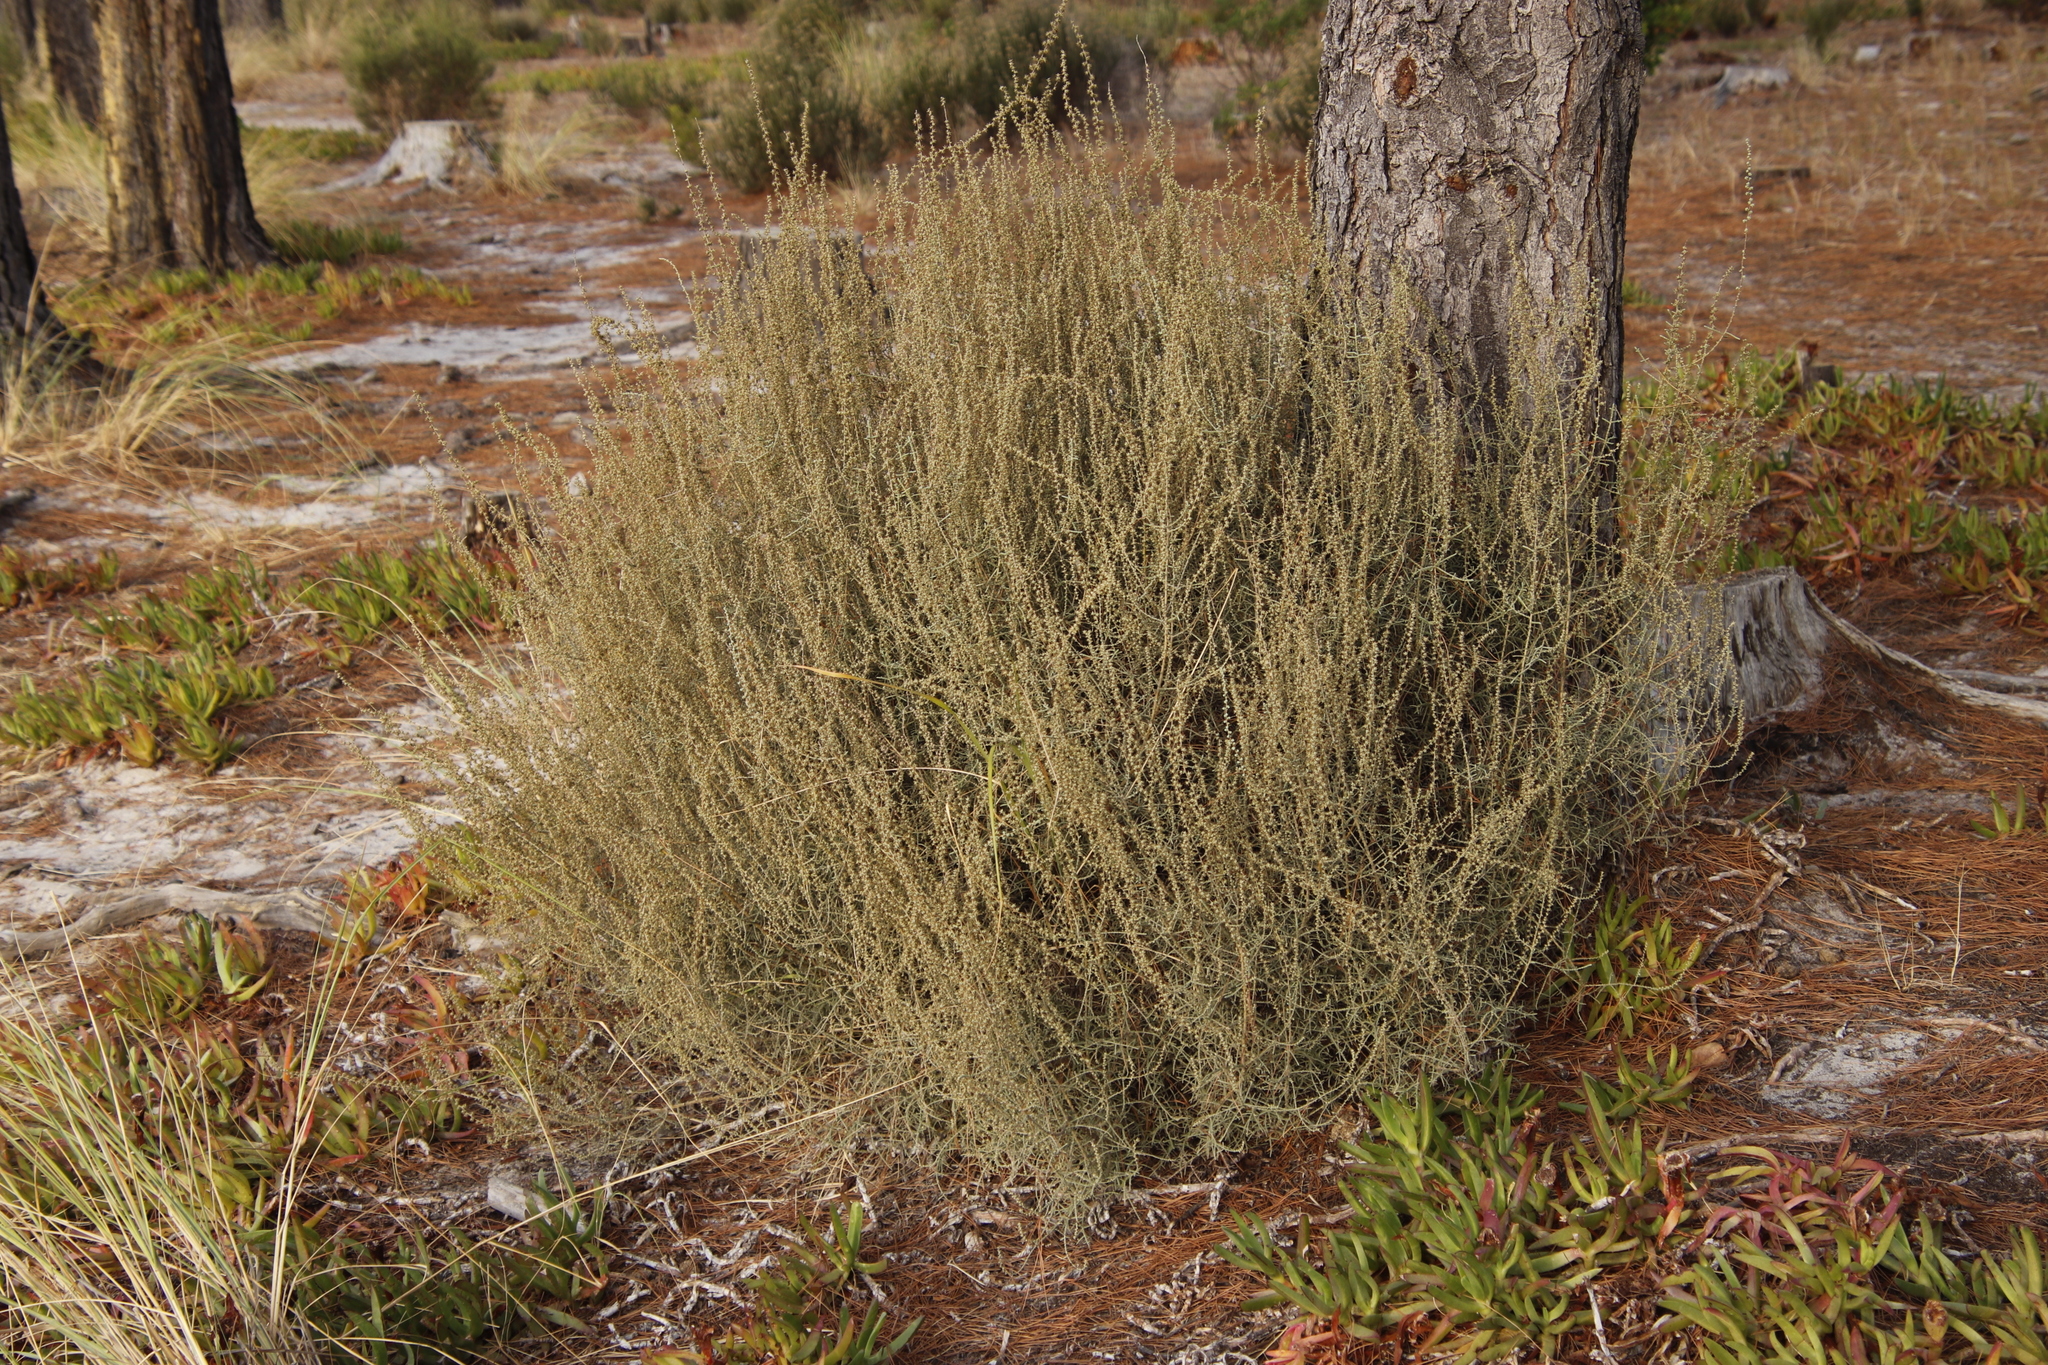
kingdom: Plantae
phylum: Tracheophyta
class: Magnoliopsida
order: Asterales
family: Asteraceae
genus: Seriphium
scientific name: Seriphium plumosum
